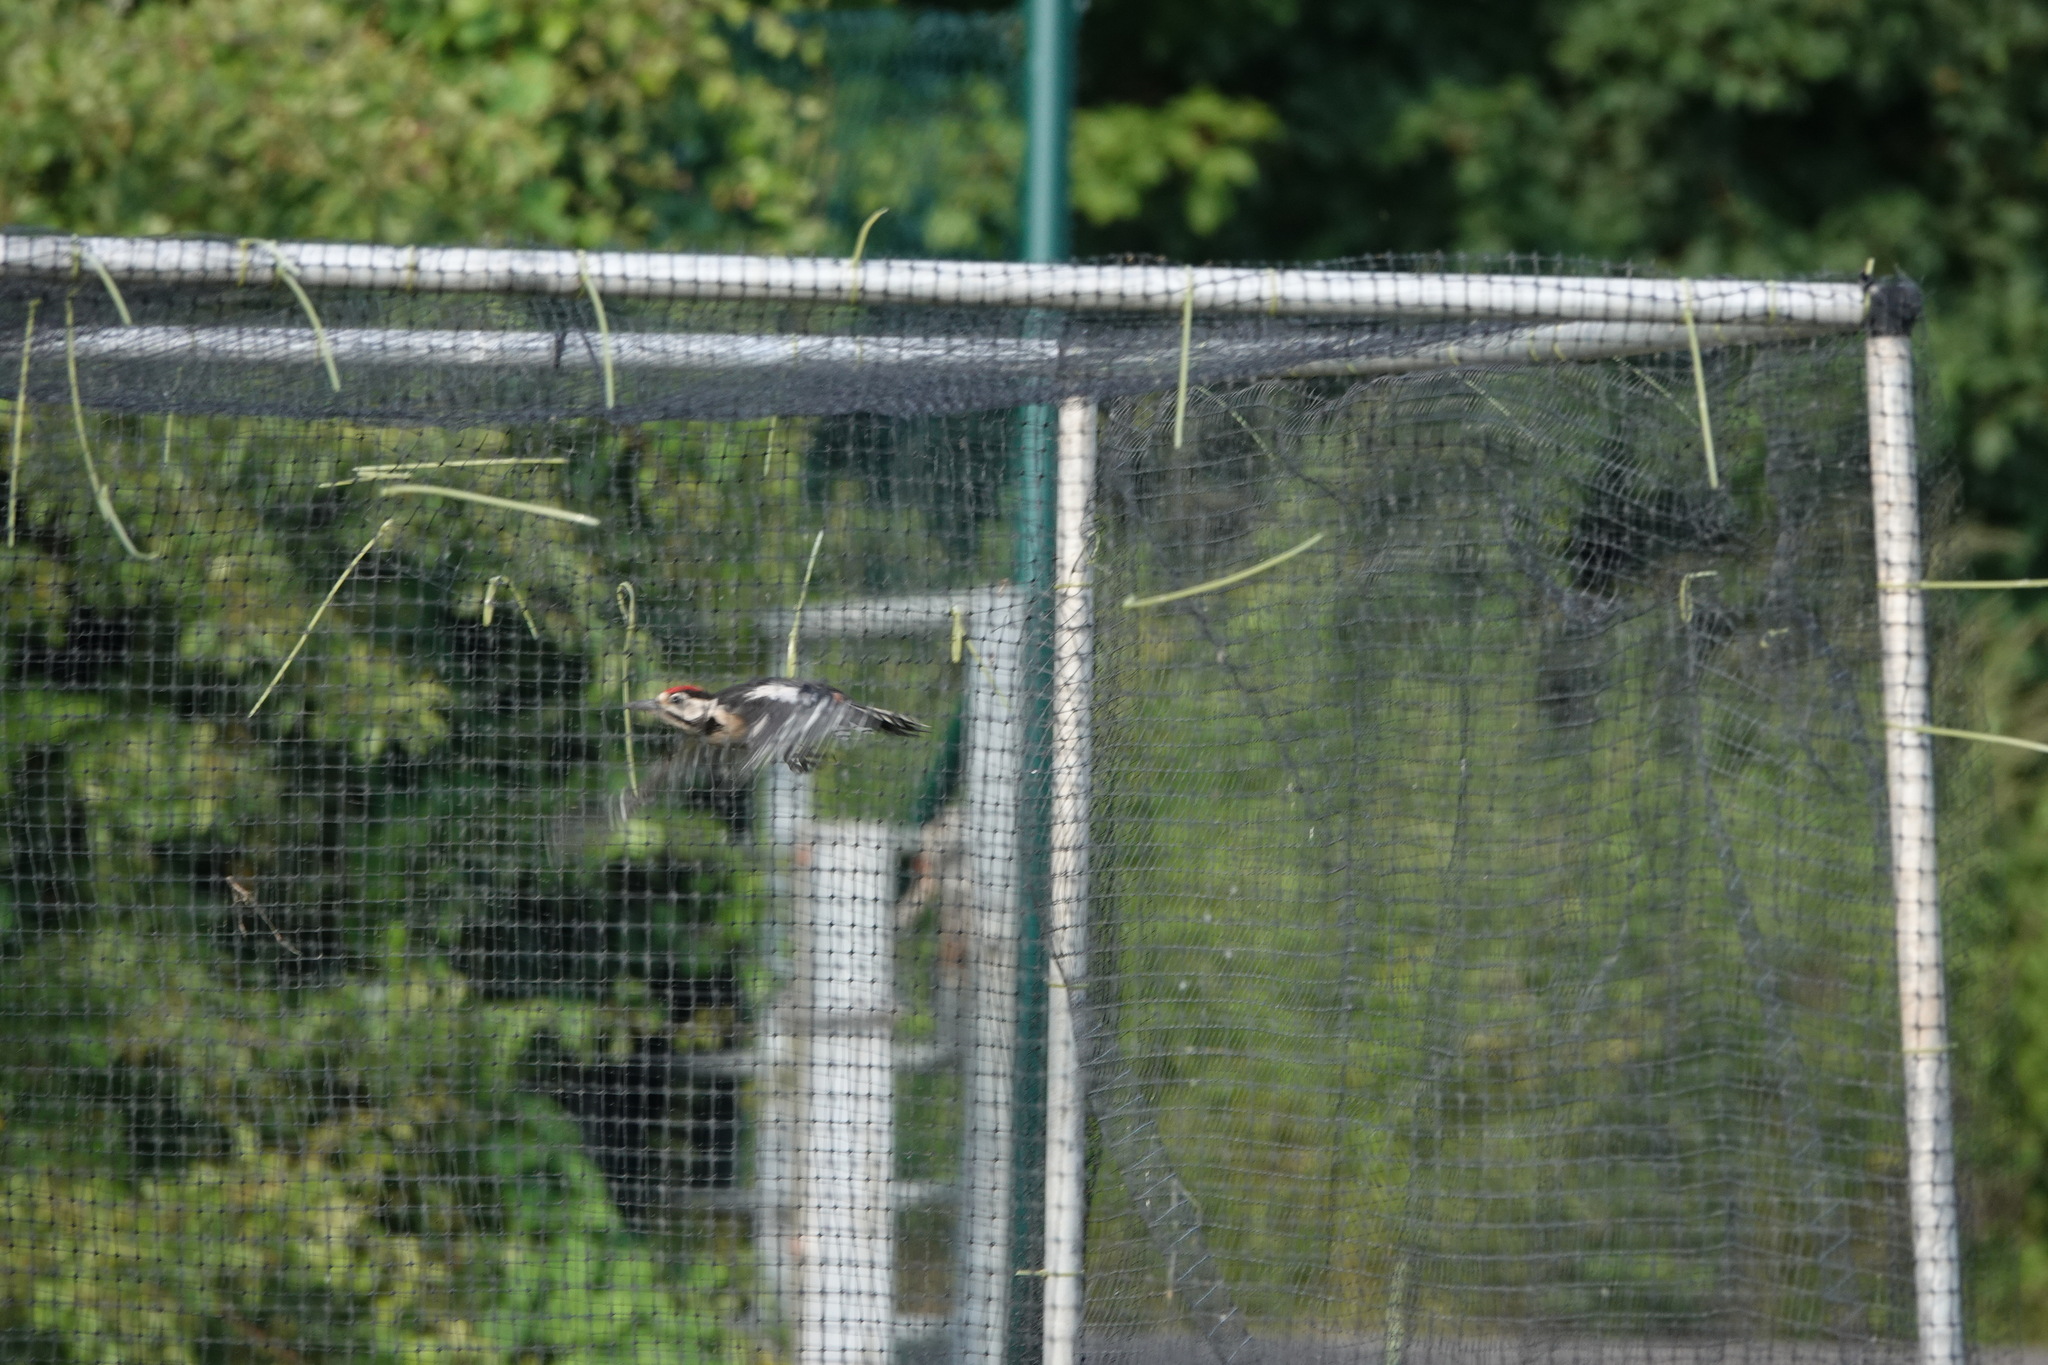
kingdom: Animalia
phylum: Chordata
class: Aves
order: Piciformes
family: Picidae
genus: Dendrocopos
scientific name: Dendrocopos major
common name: Great spotted woodpecker
